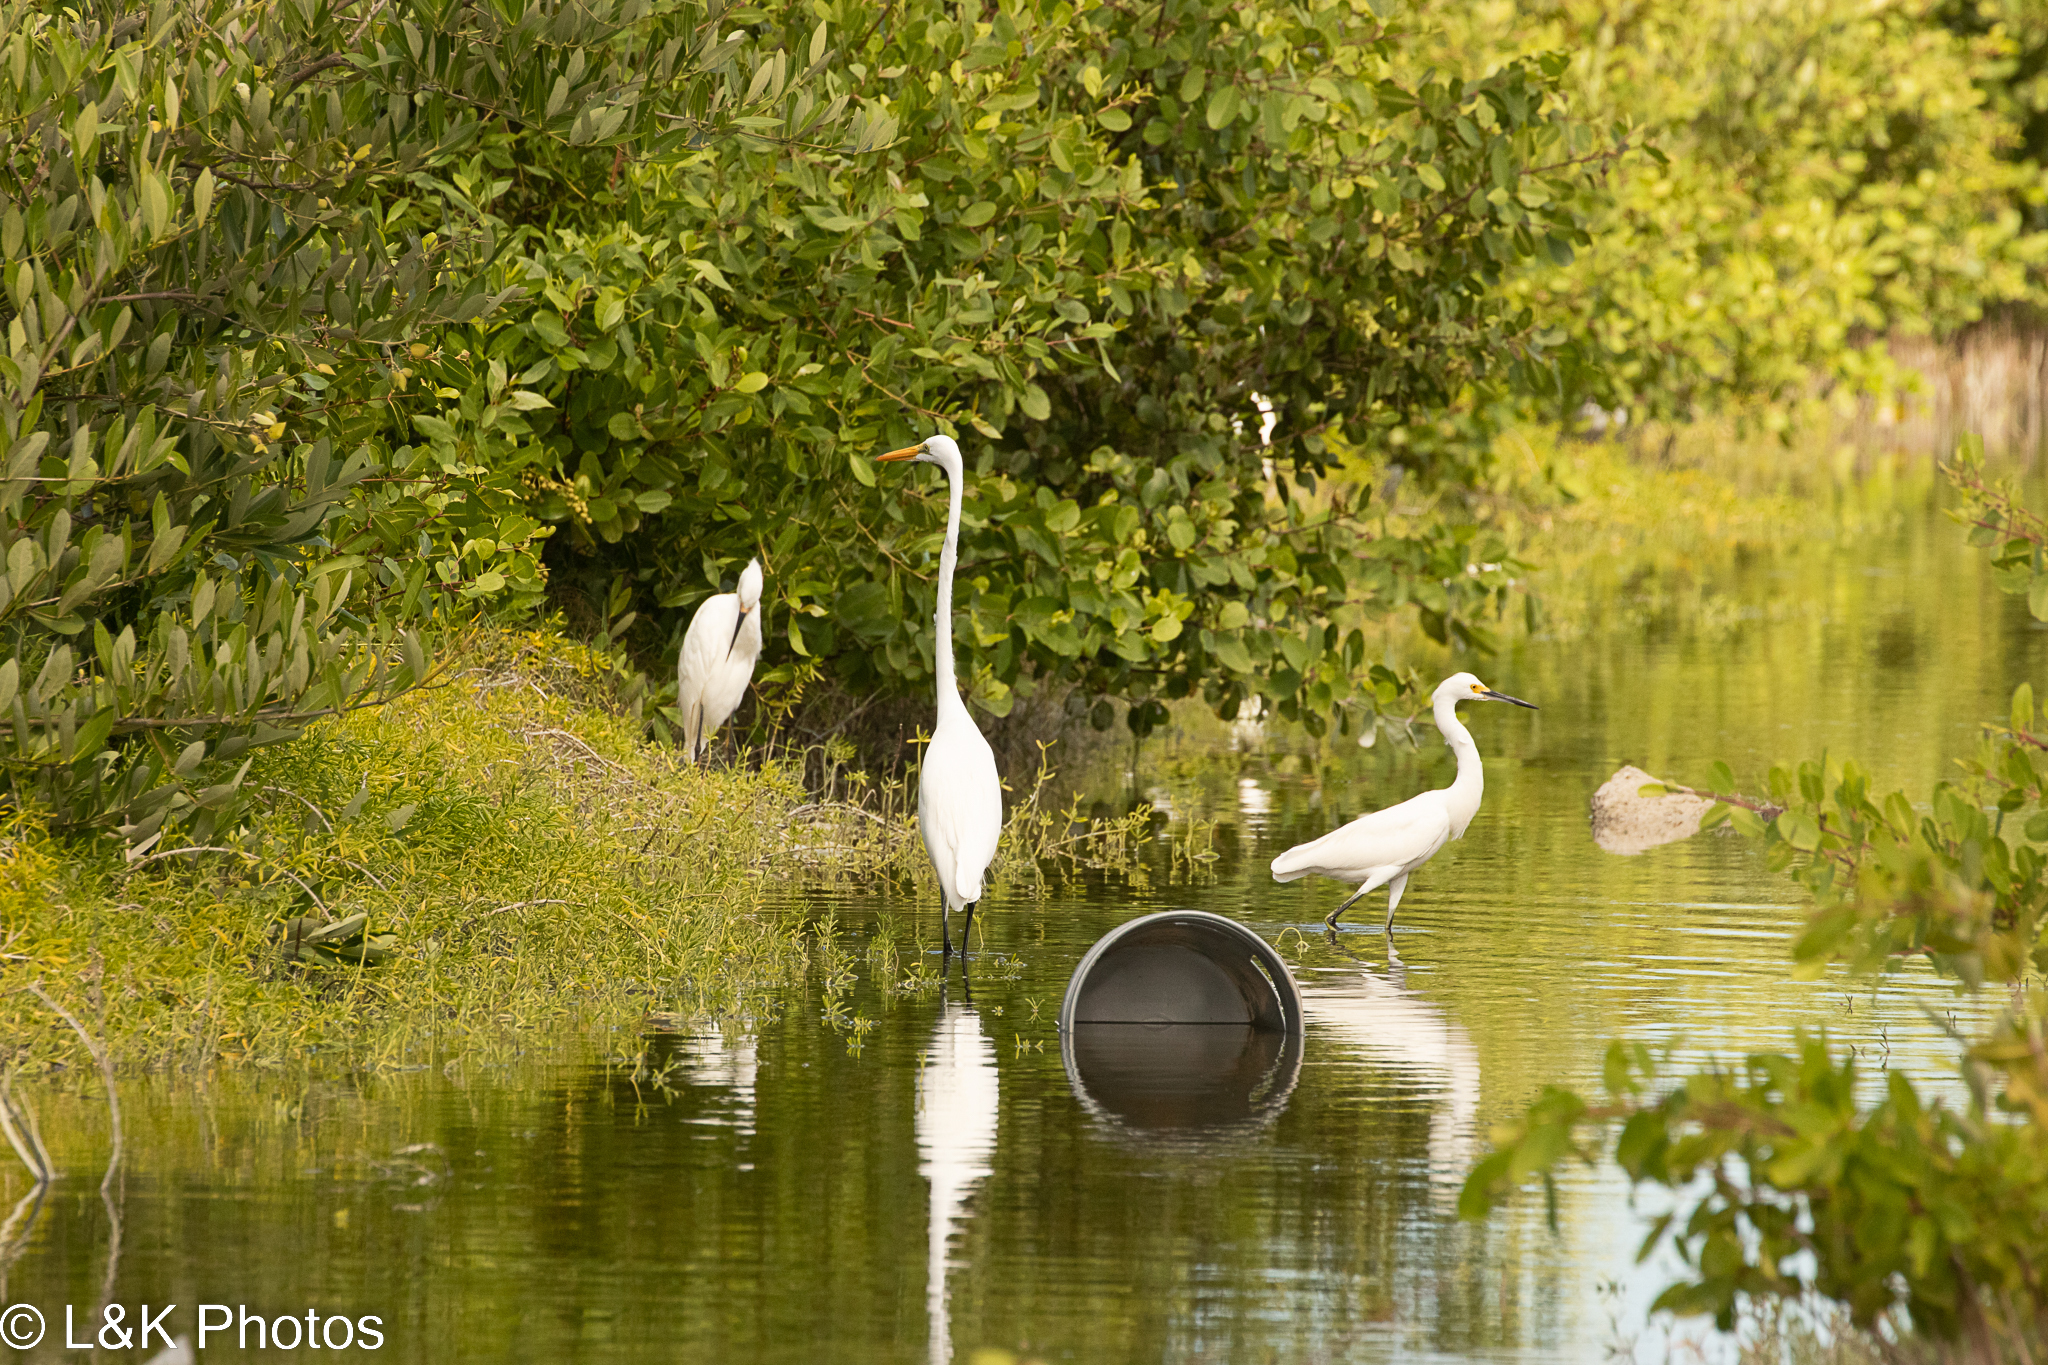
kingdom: Animalia
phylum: Chordata
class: Aves
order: Pelecaniformes
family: Ardeidae
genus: Ardea
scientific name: Ardea alba
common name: Great egret
